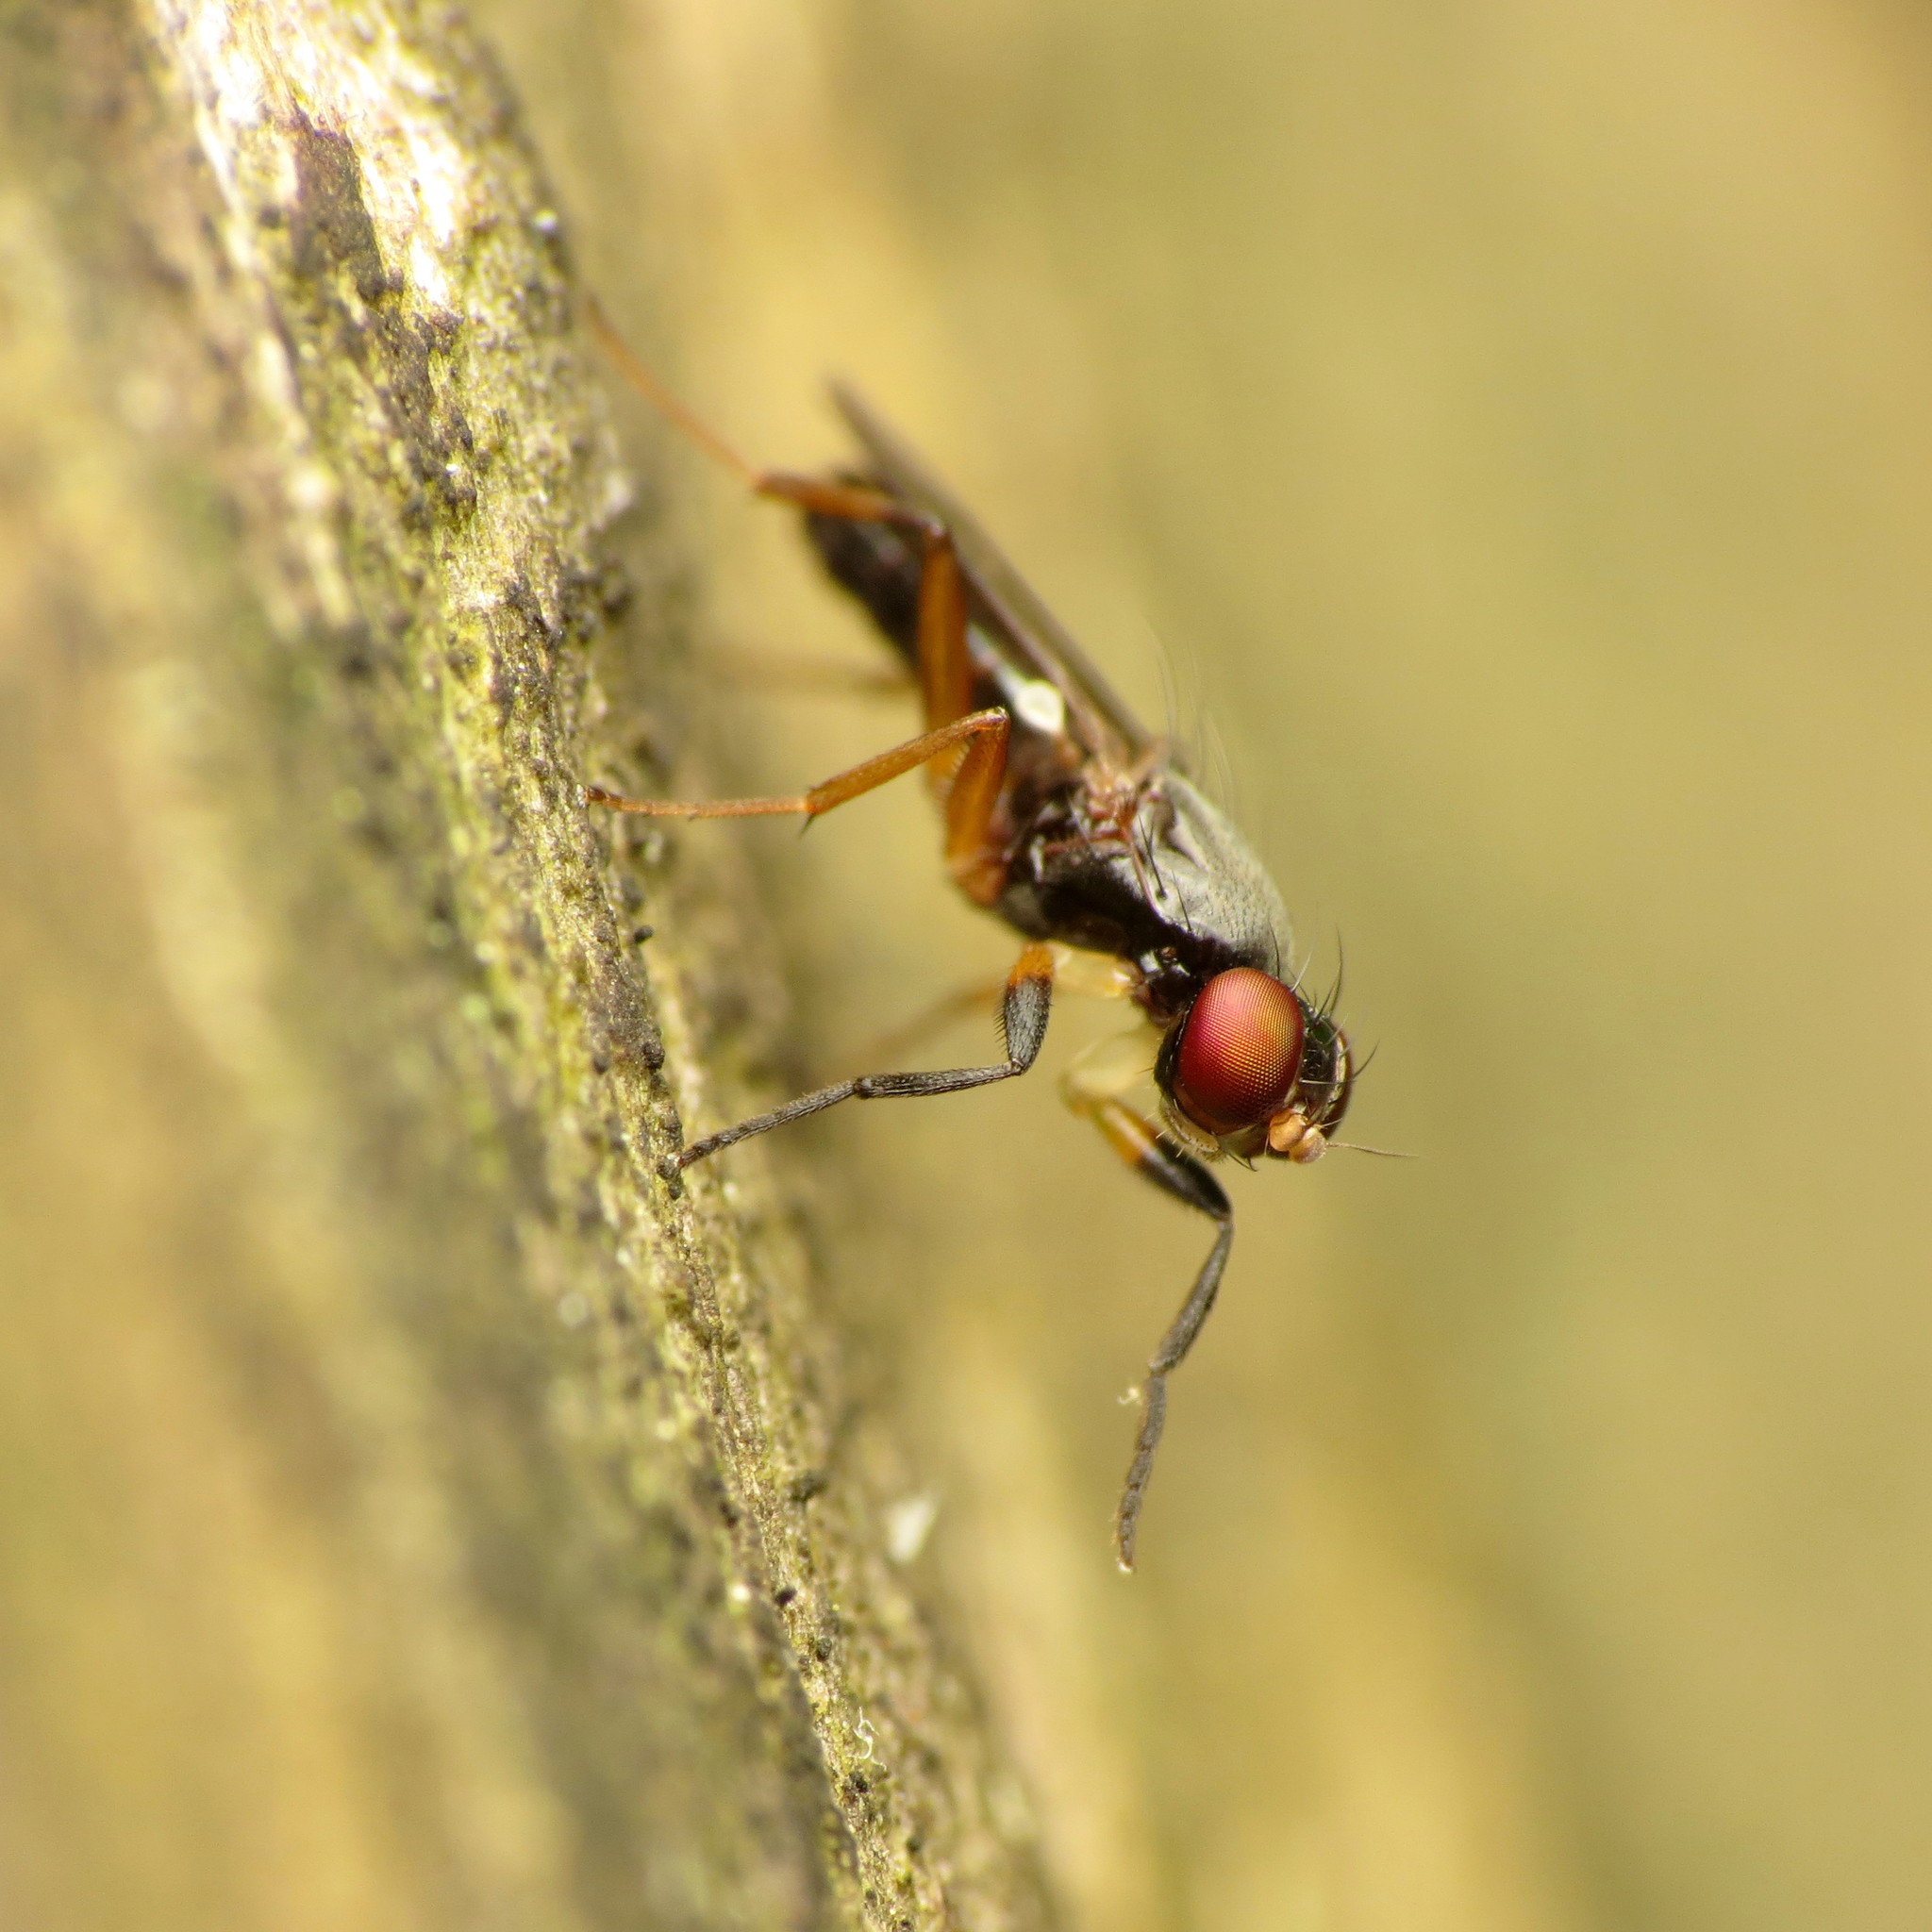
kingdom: Animalia
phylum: Arthropoda
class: Insecta
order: Diptera
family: Clusiidae
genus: Heteromeringia
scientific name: Heteromeringia nitida
